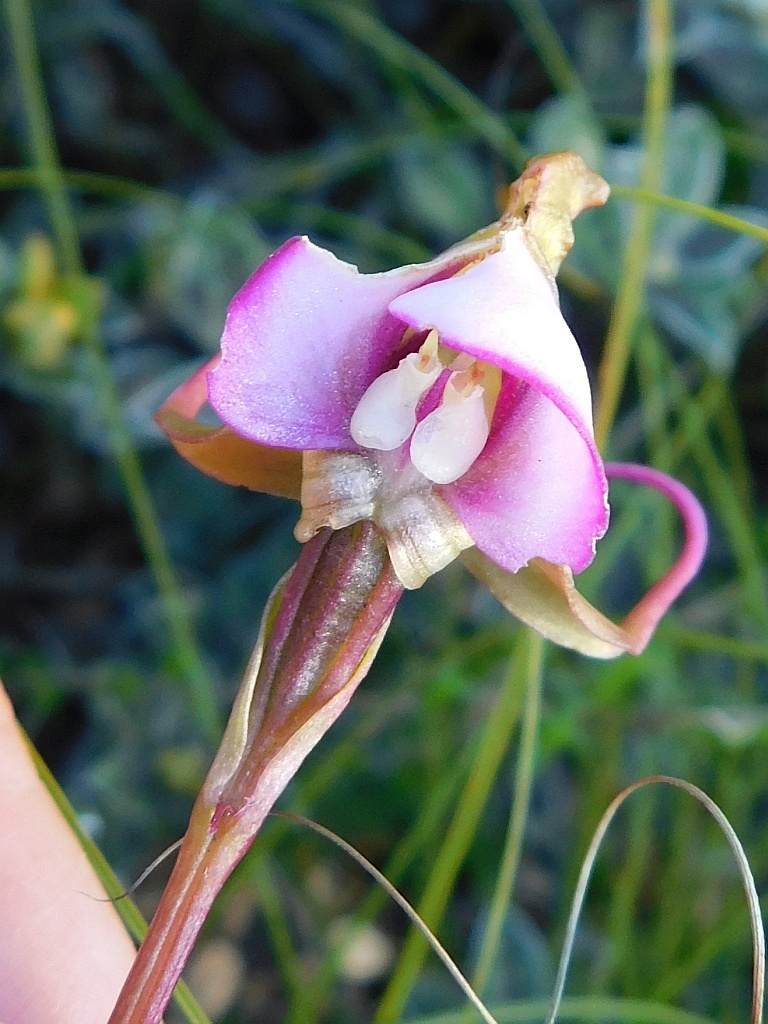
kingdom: Plantae
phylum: Tracheophyta
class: Liliopsida
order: Asparagales
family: Orchidaceae
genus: Disperis
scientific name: Disperis capensis
